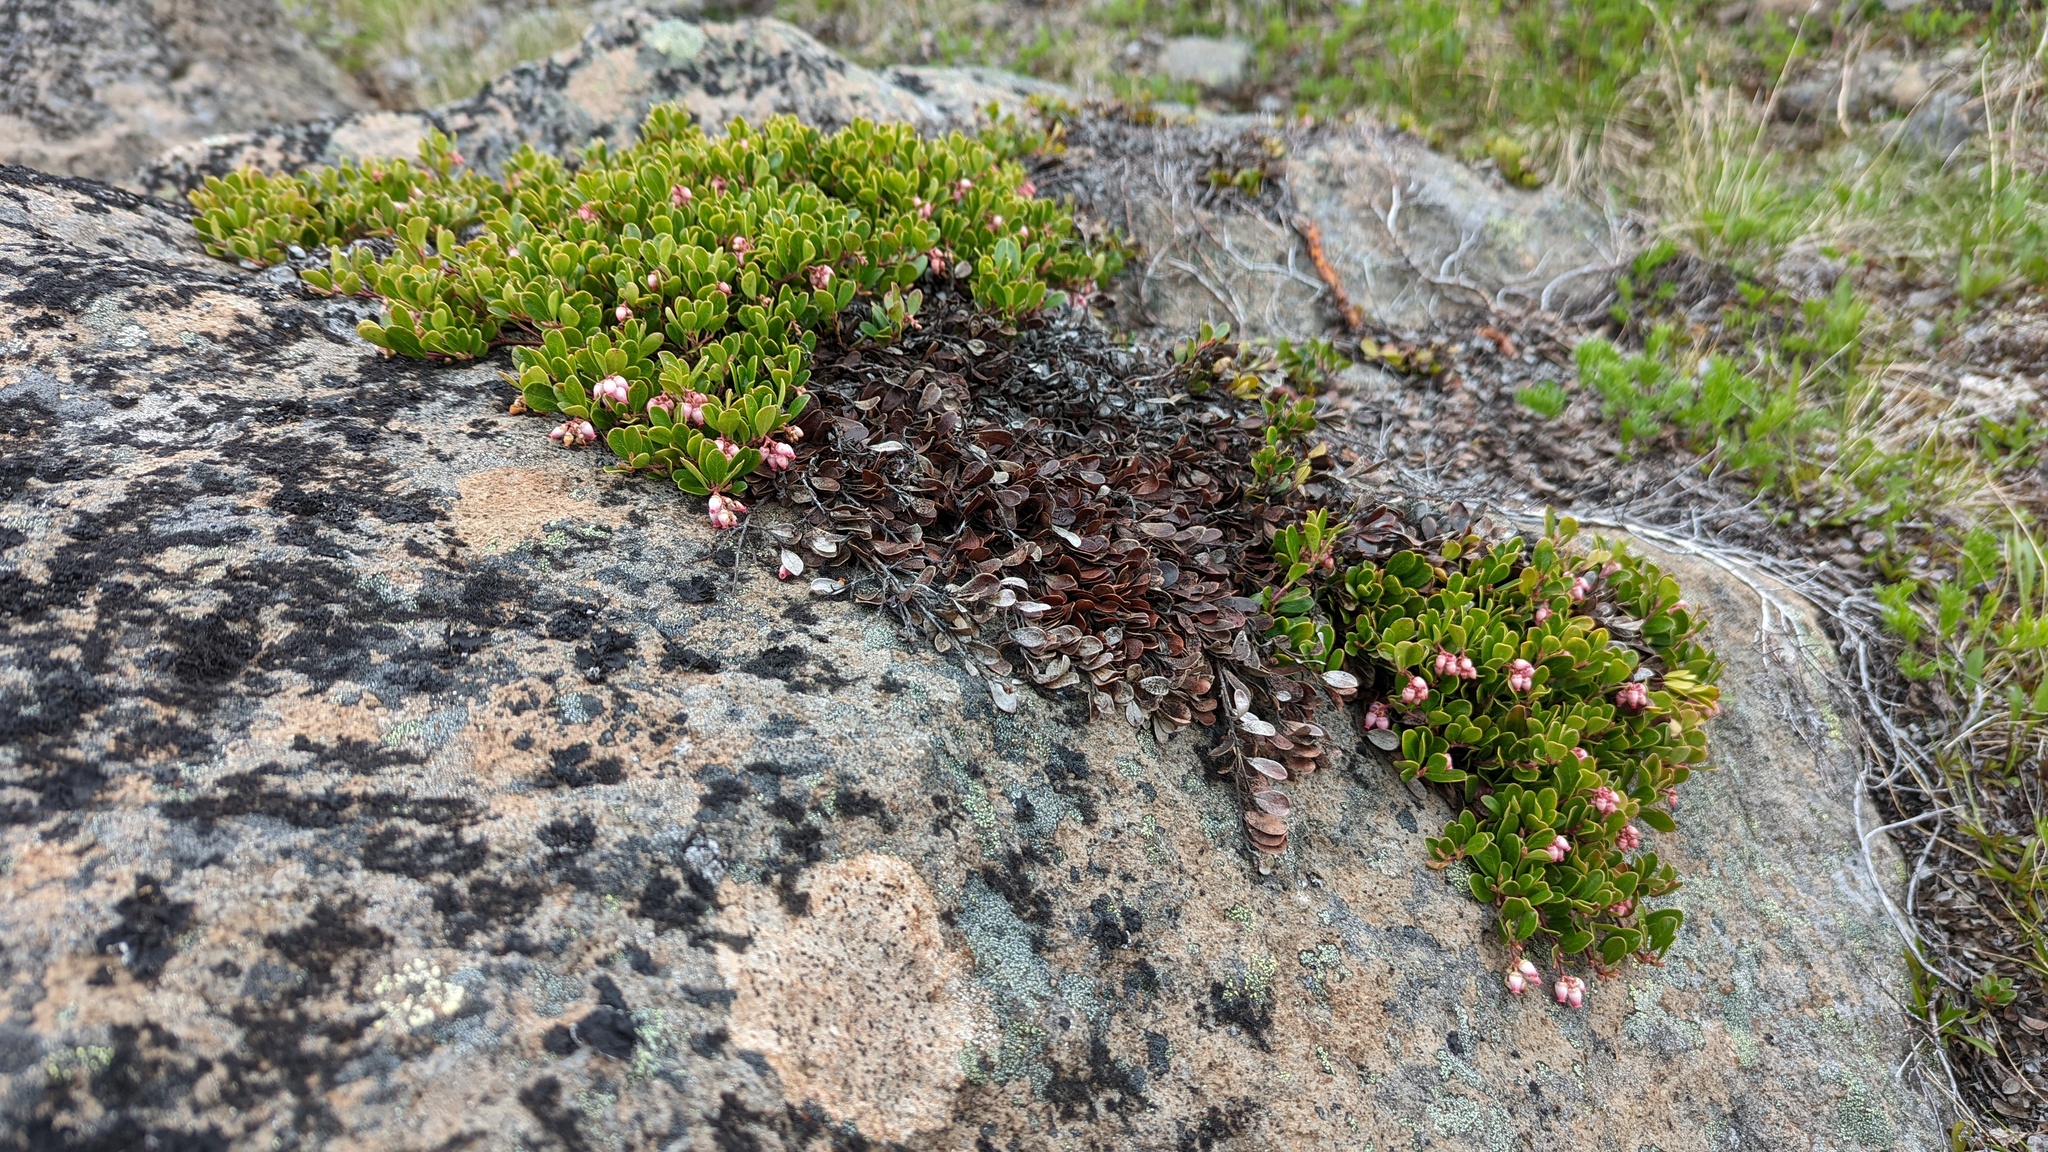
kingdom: Plantae
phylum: Tracheophyta
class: Magnoliopsida
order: Ericales
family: Ericaceae
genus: Arctostaphylos
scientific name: Arctostaphylos uva-ursi
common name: Bearberry
